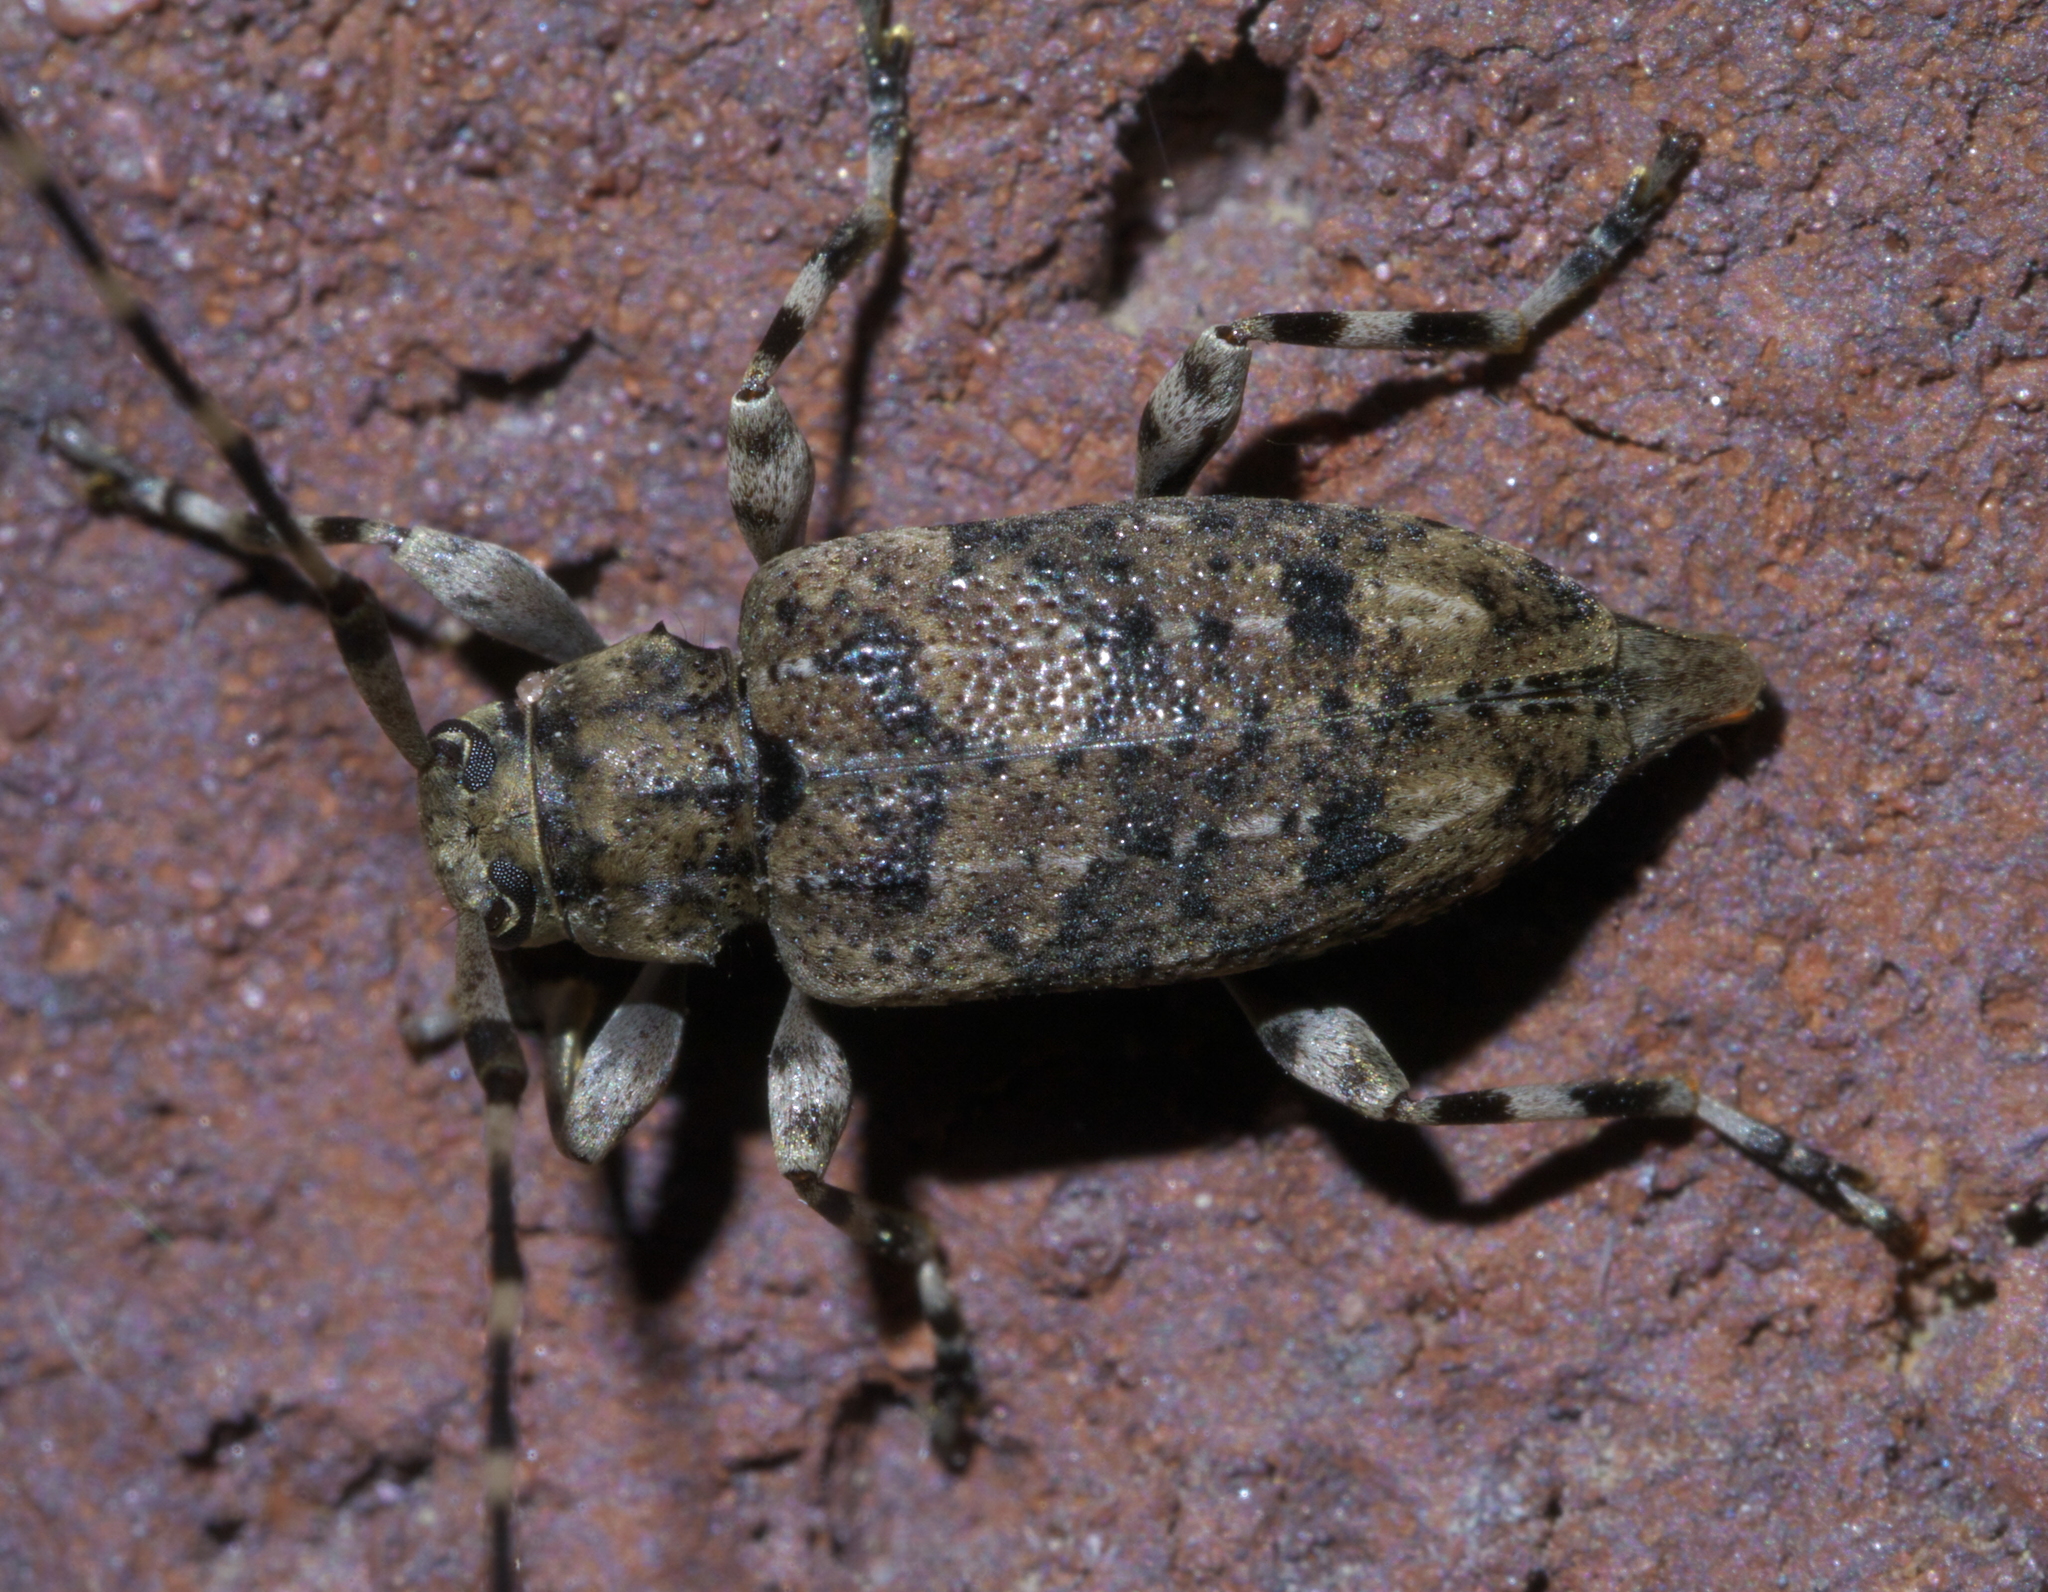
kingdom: Animalia
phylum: Arthropoda
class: Insecta
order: Coleoptera
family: Cerambycidae
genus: Astyleiopus
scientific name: Astyleiopus variegatus
